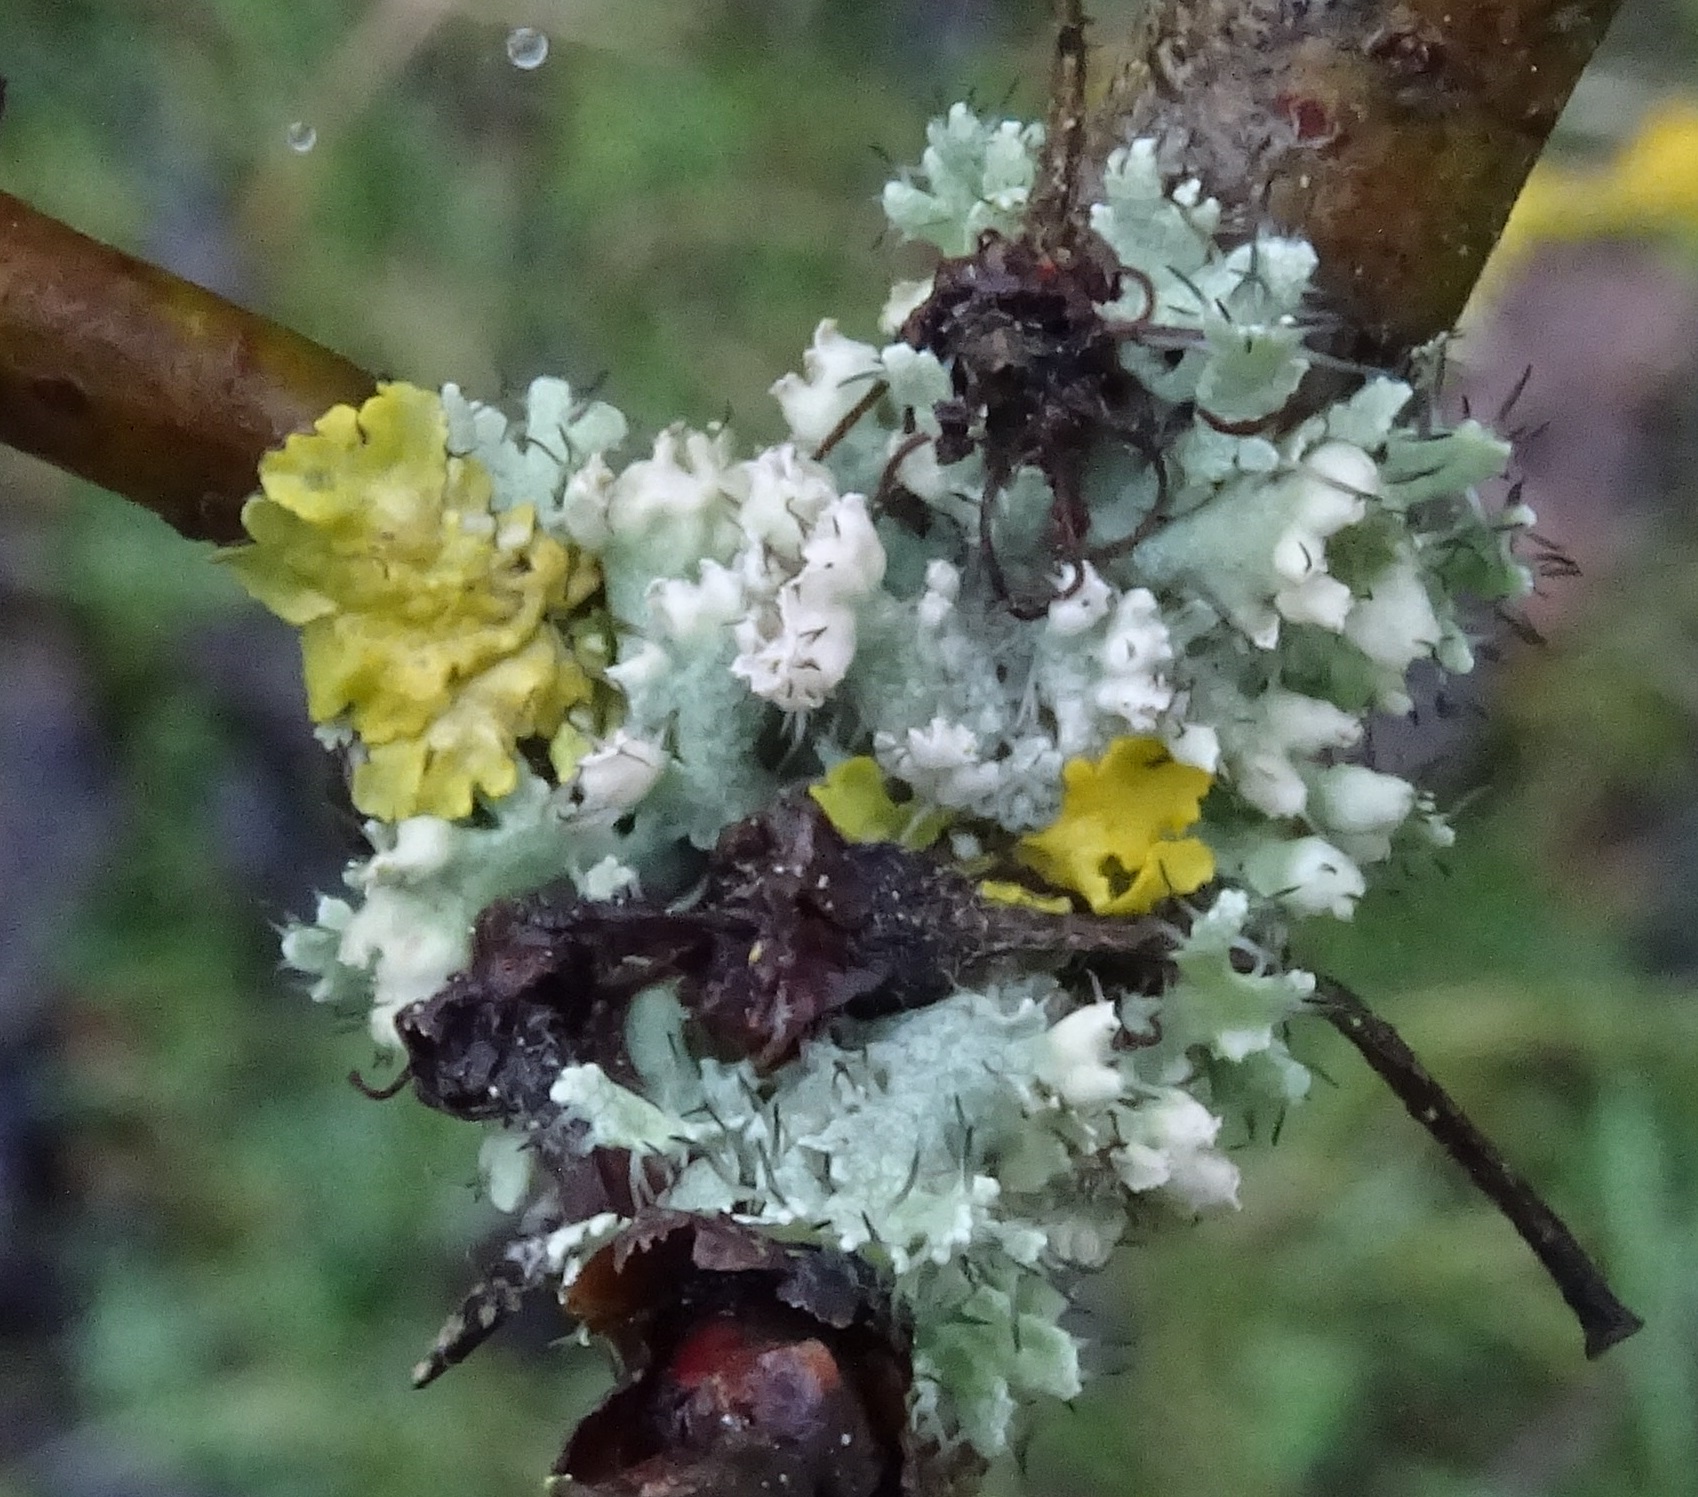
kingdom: Fungi
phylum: Ascomycota
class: Lecanoromycetes
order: Caliciales
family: Physciaceae
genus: Physcia
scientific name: Physcia adscendens
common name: Hooded rosette lichen
